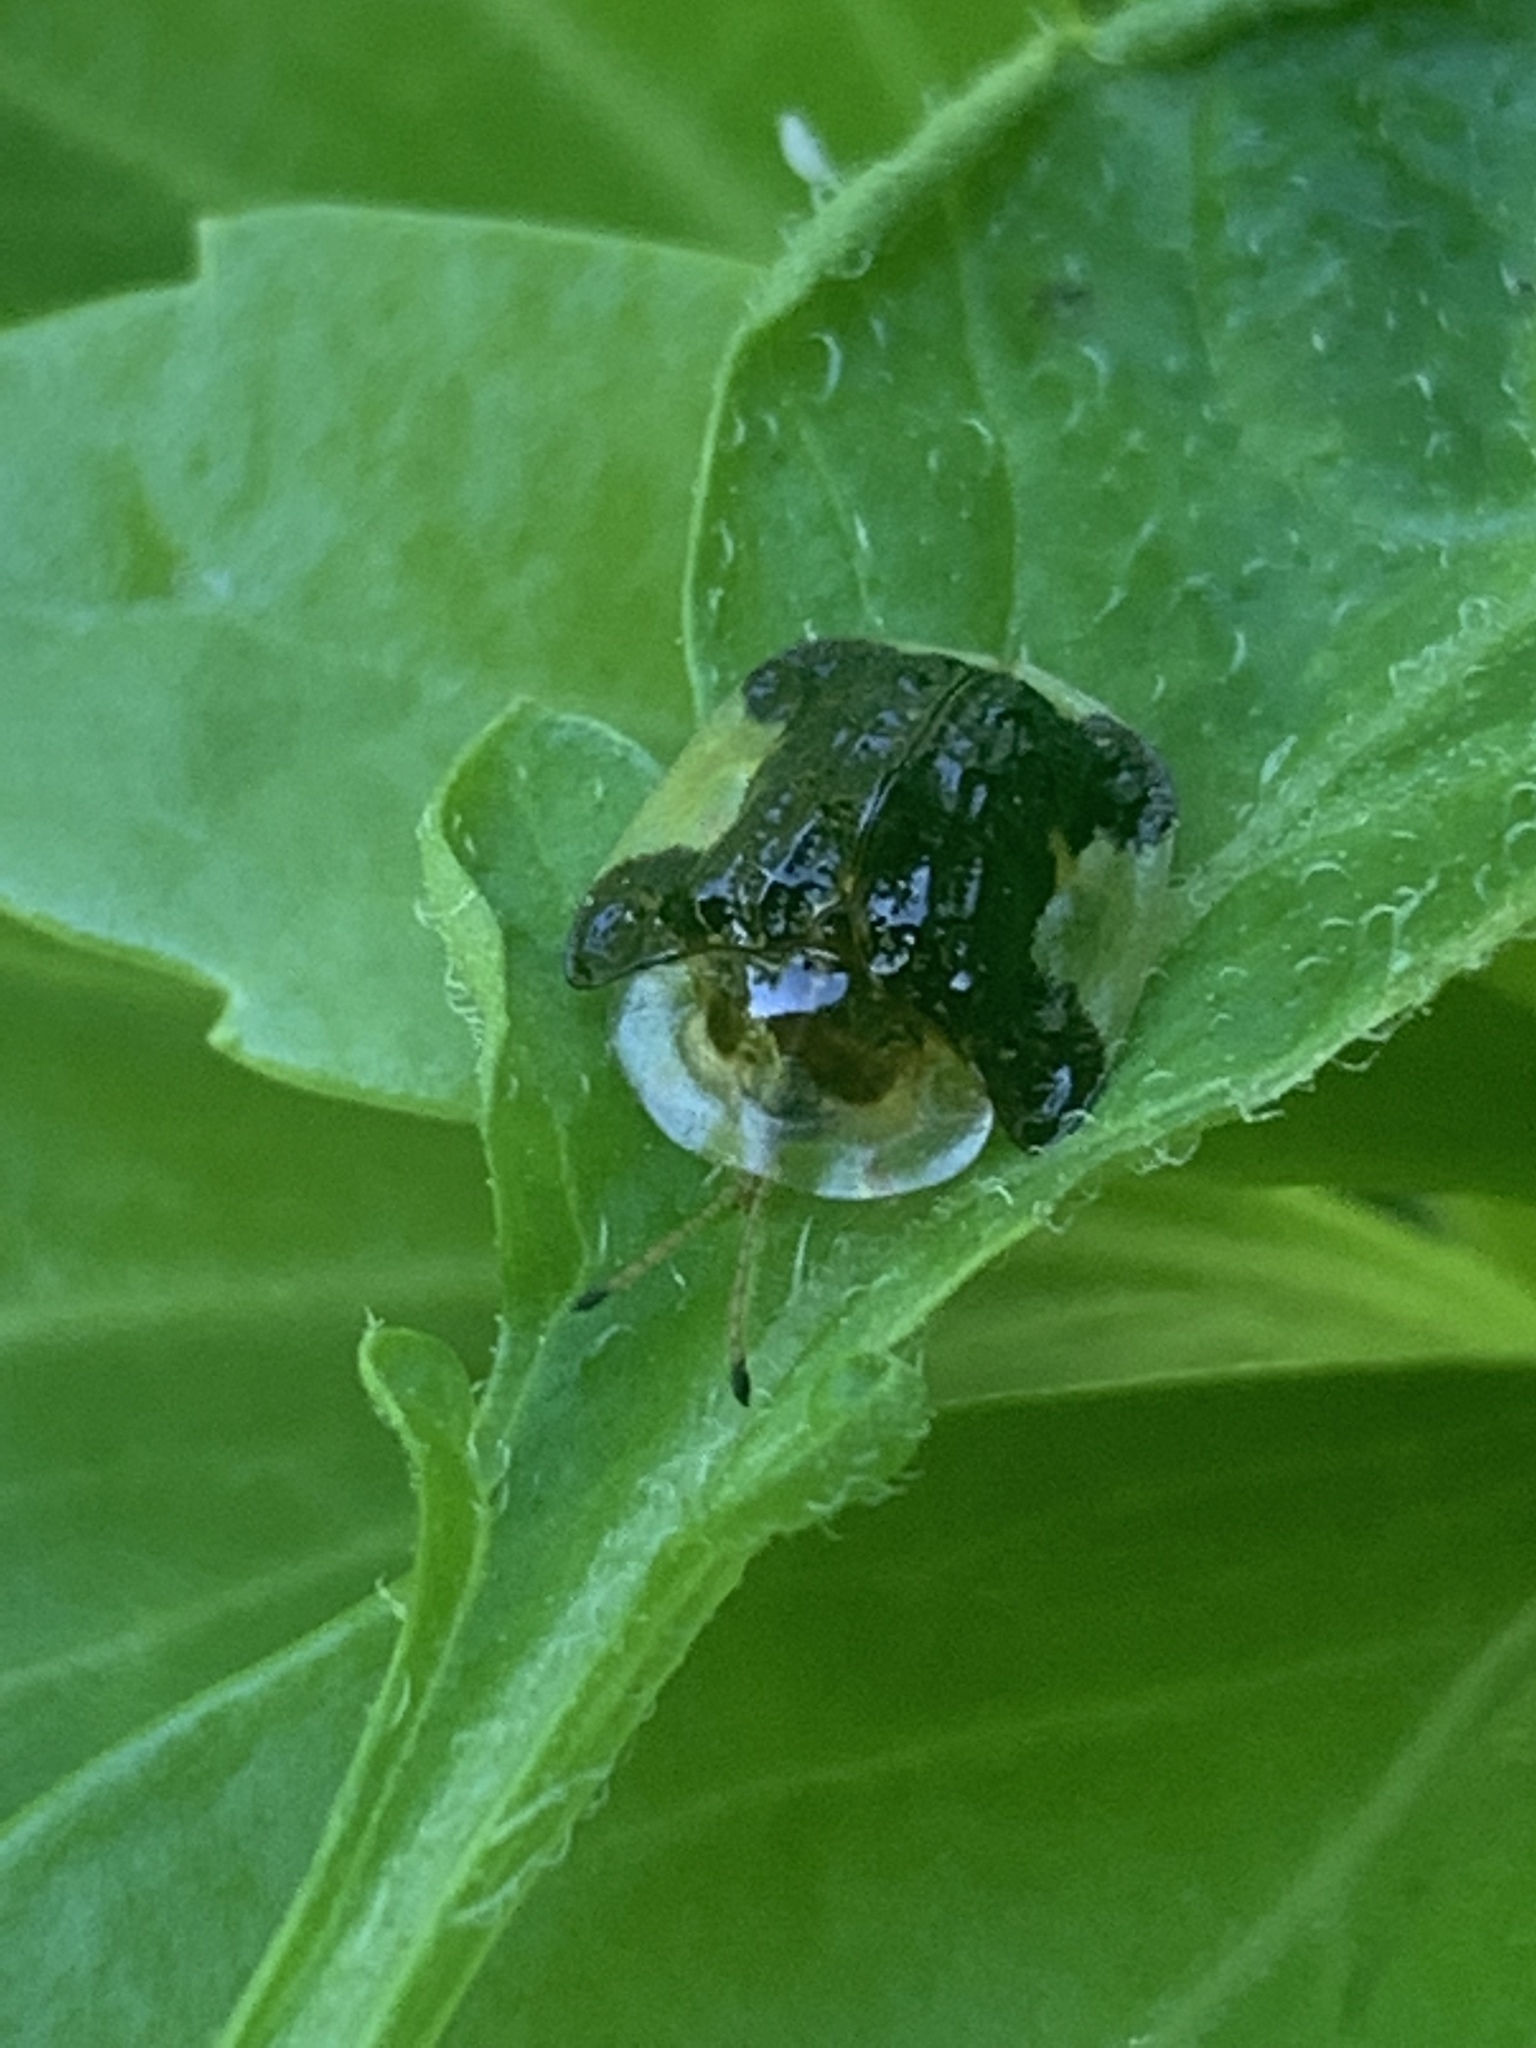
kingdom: Animalia
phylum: Arthropoda
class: Insecta
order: Coleoptera
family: Chrysomelidae
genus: Helocassis
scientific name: Helocassis clavata
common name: Clavate tortoise beetle
